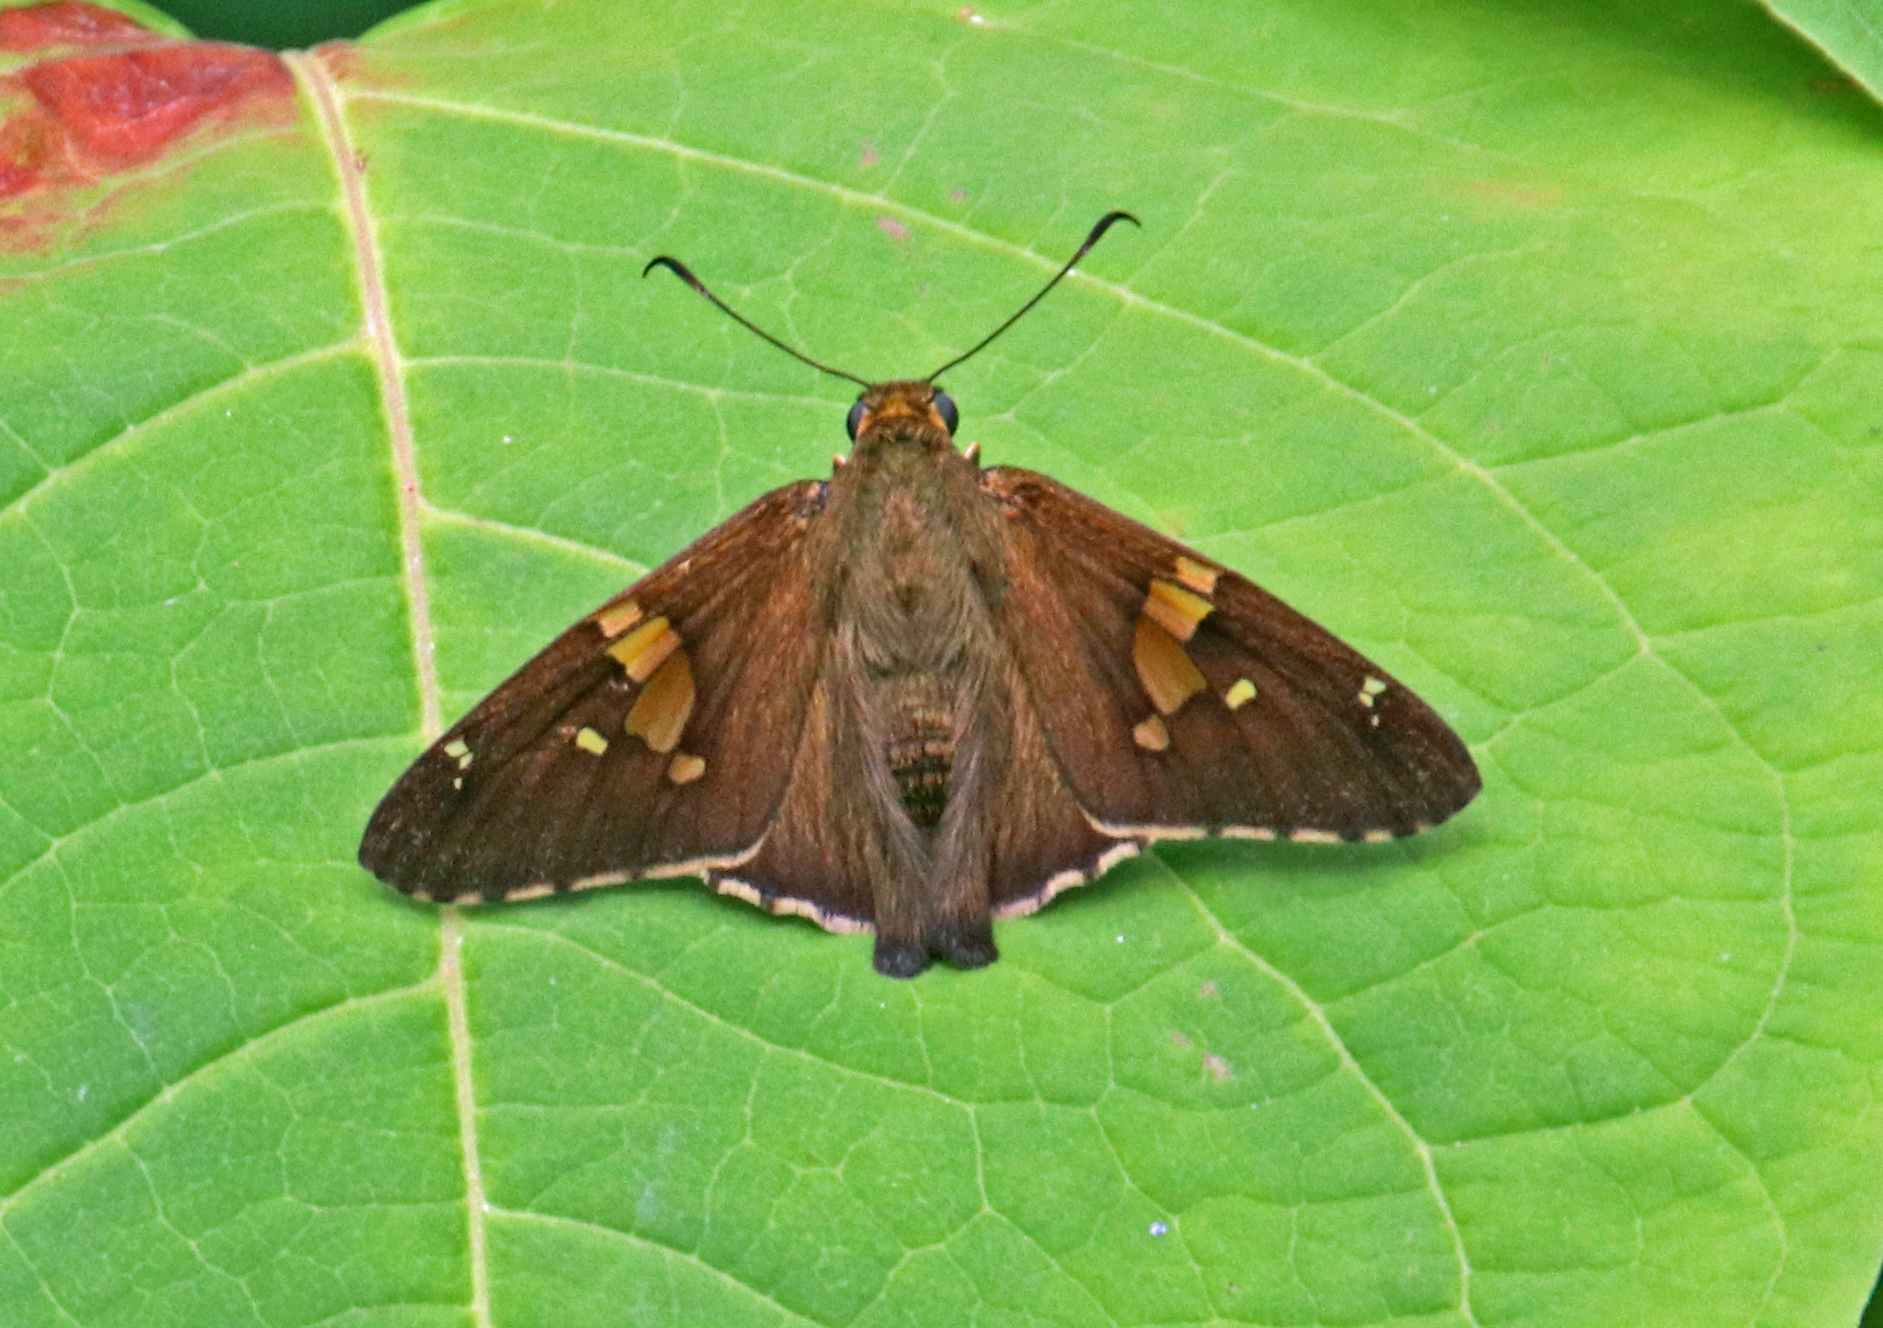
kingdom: Animalia
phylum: Arthropoda
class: Insecta
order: Lepidoptera
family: Hesperiidae
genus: Epargyreus
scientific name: Epargyreus clarus
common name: Silver-spotted skipper
